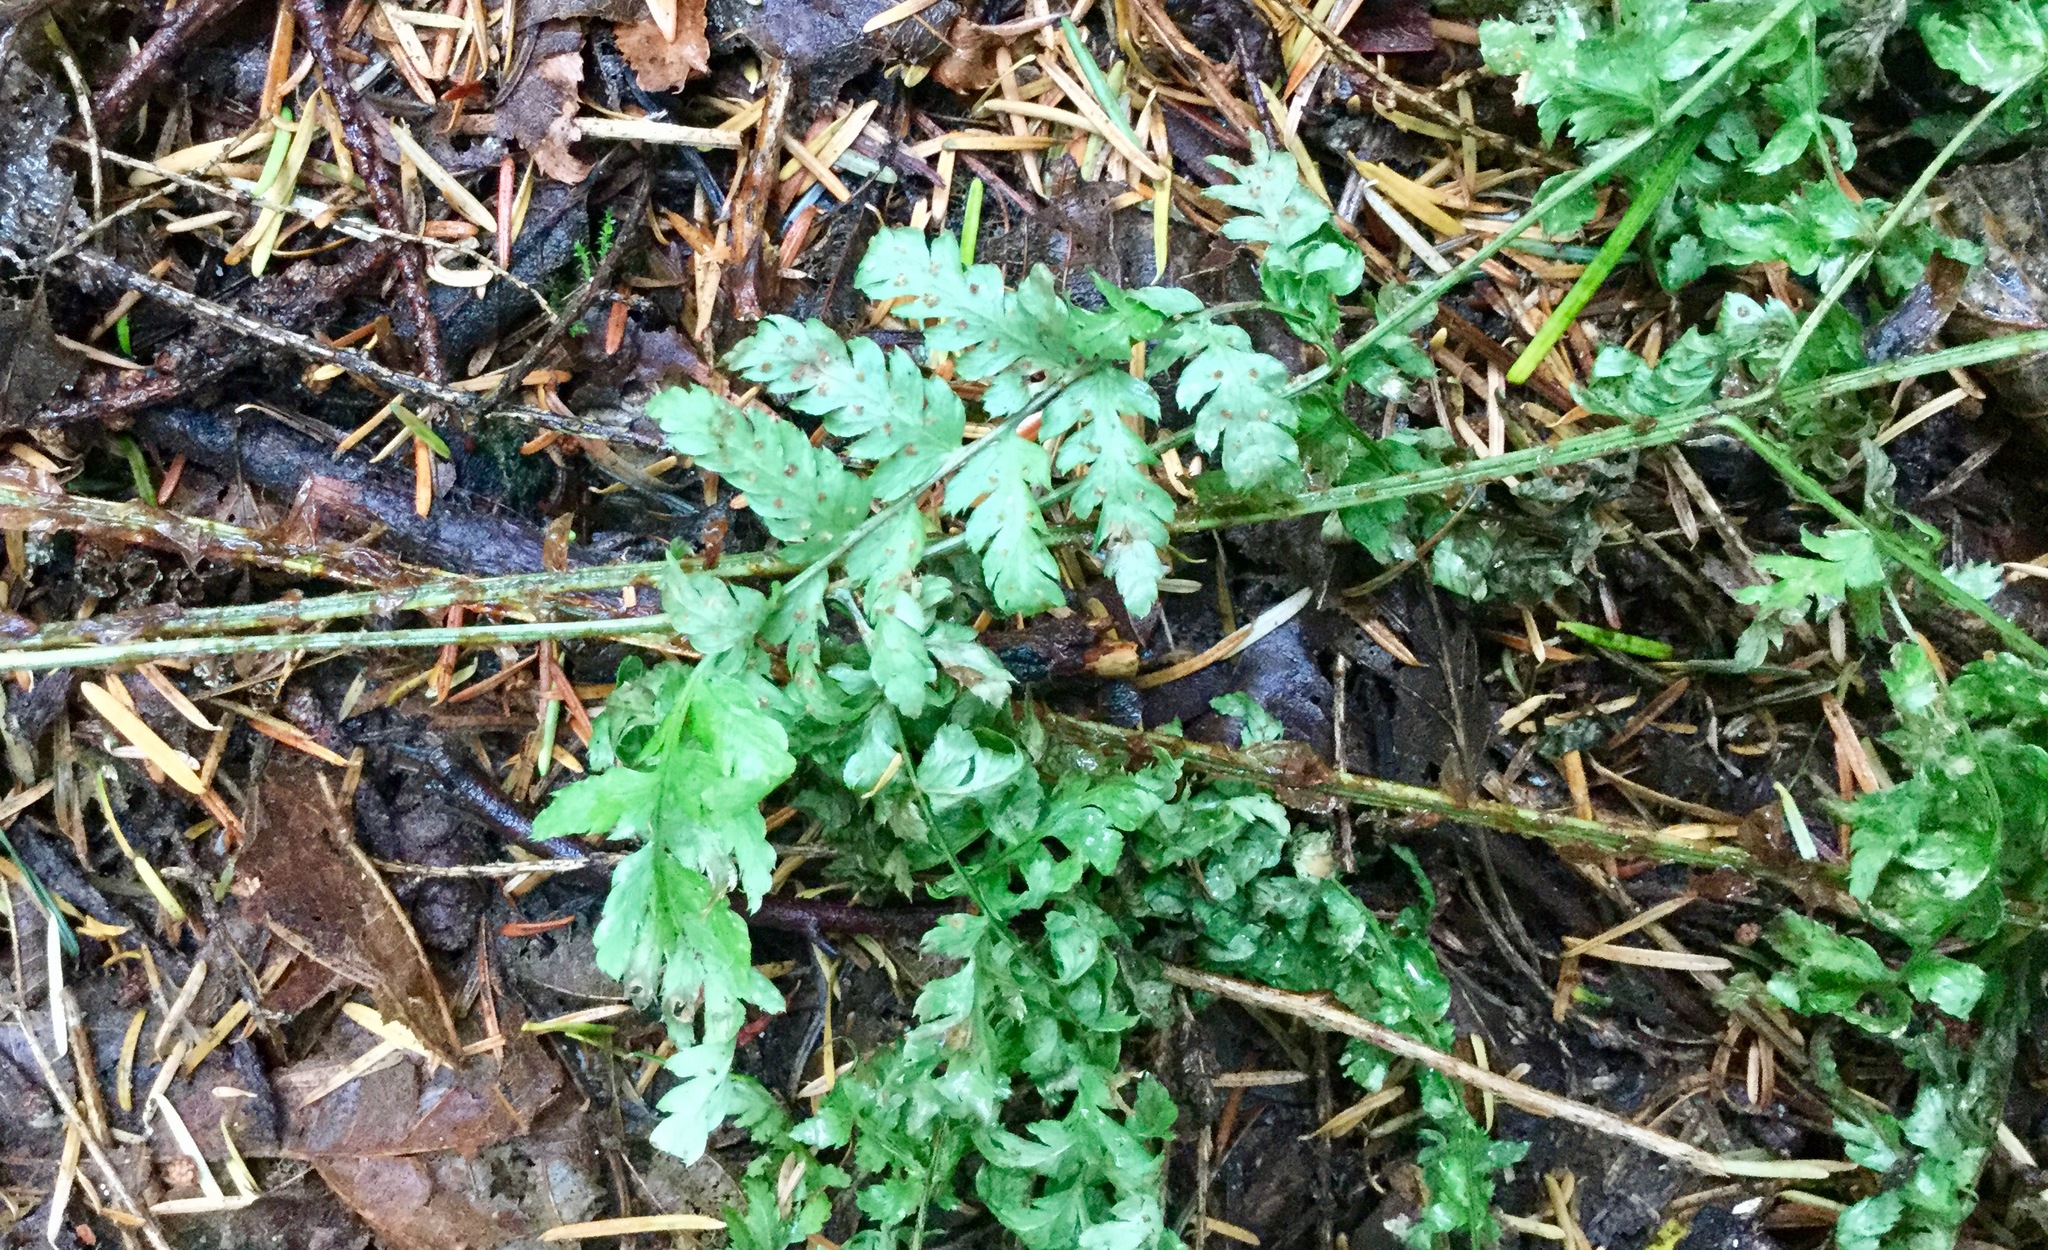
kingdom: Plantae
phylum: Tracheophyta
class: Polypodiopsida
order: Polypodiales
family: Dryopteridaceae
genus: Dryopteris
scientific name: Dryopteris expansa
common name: Northern buckler fern
